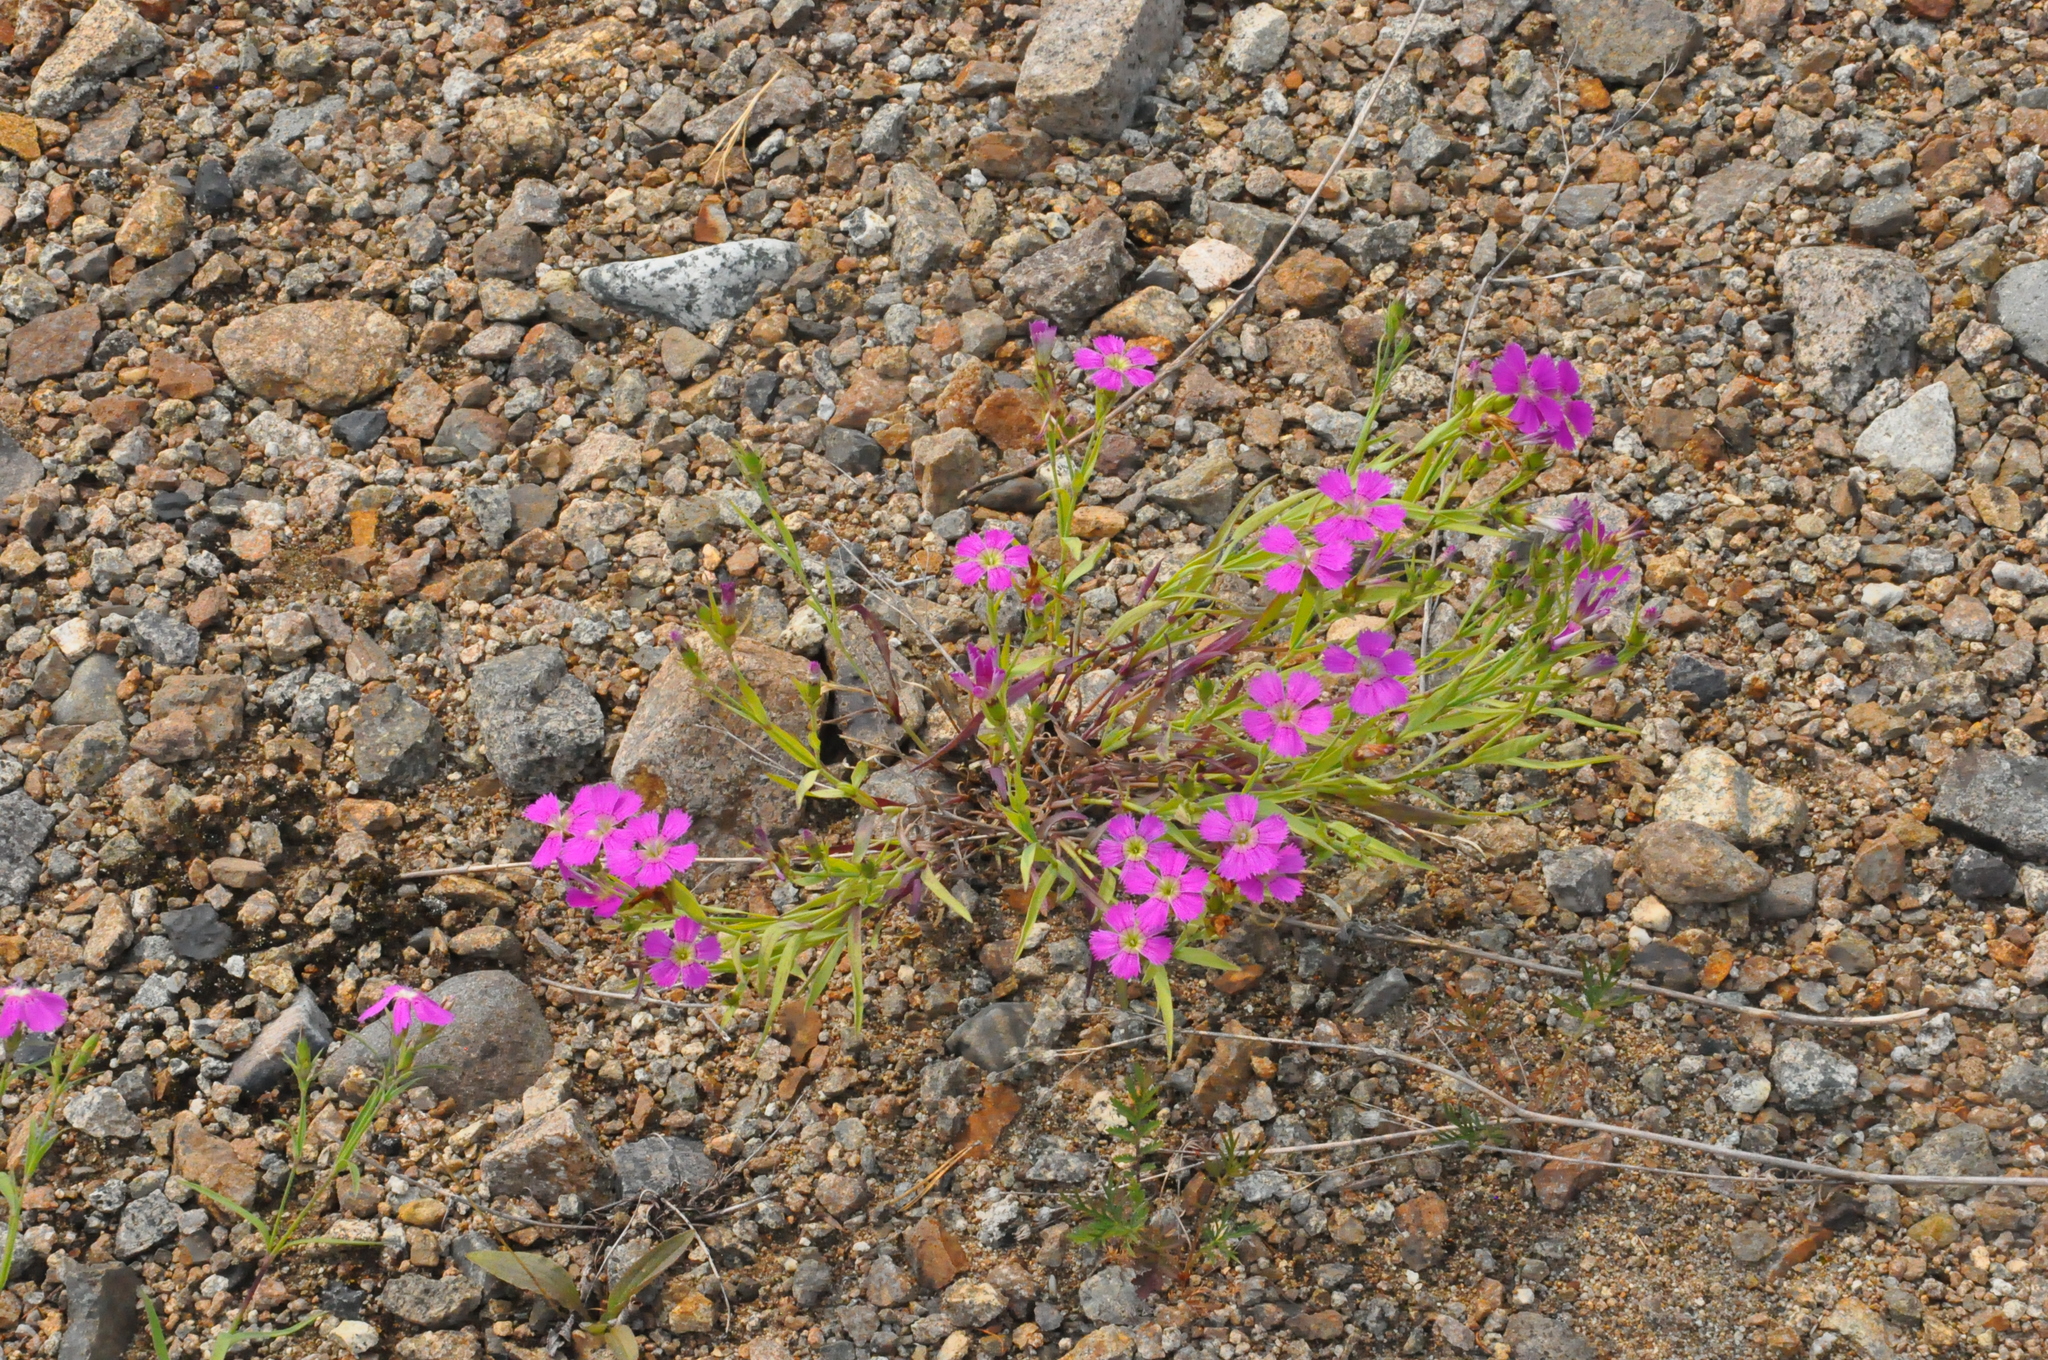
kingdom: Plantae
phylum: Tracheophyta
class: Magnoliopsida
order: Caryophyllales
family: Caryophyllaceae
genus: Dianthus
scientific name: Dianthus chinensis
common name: Rainbow pink
